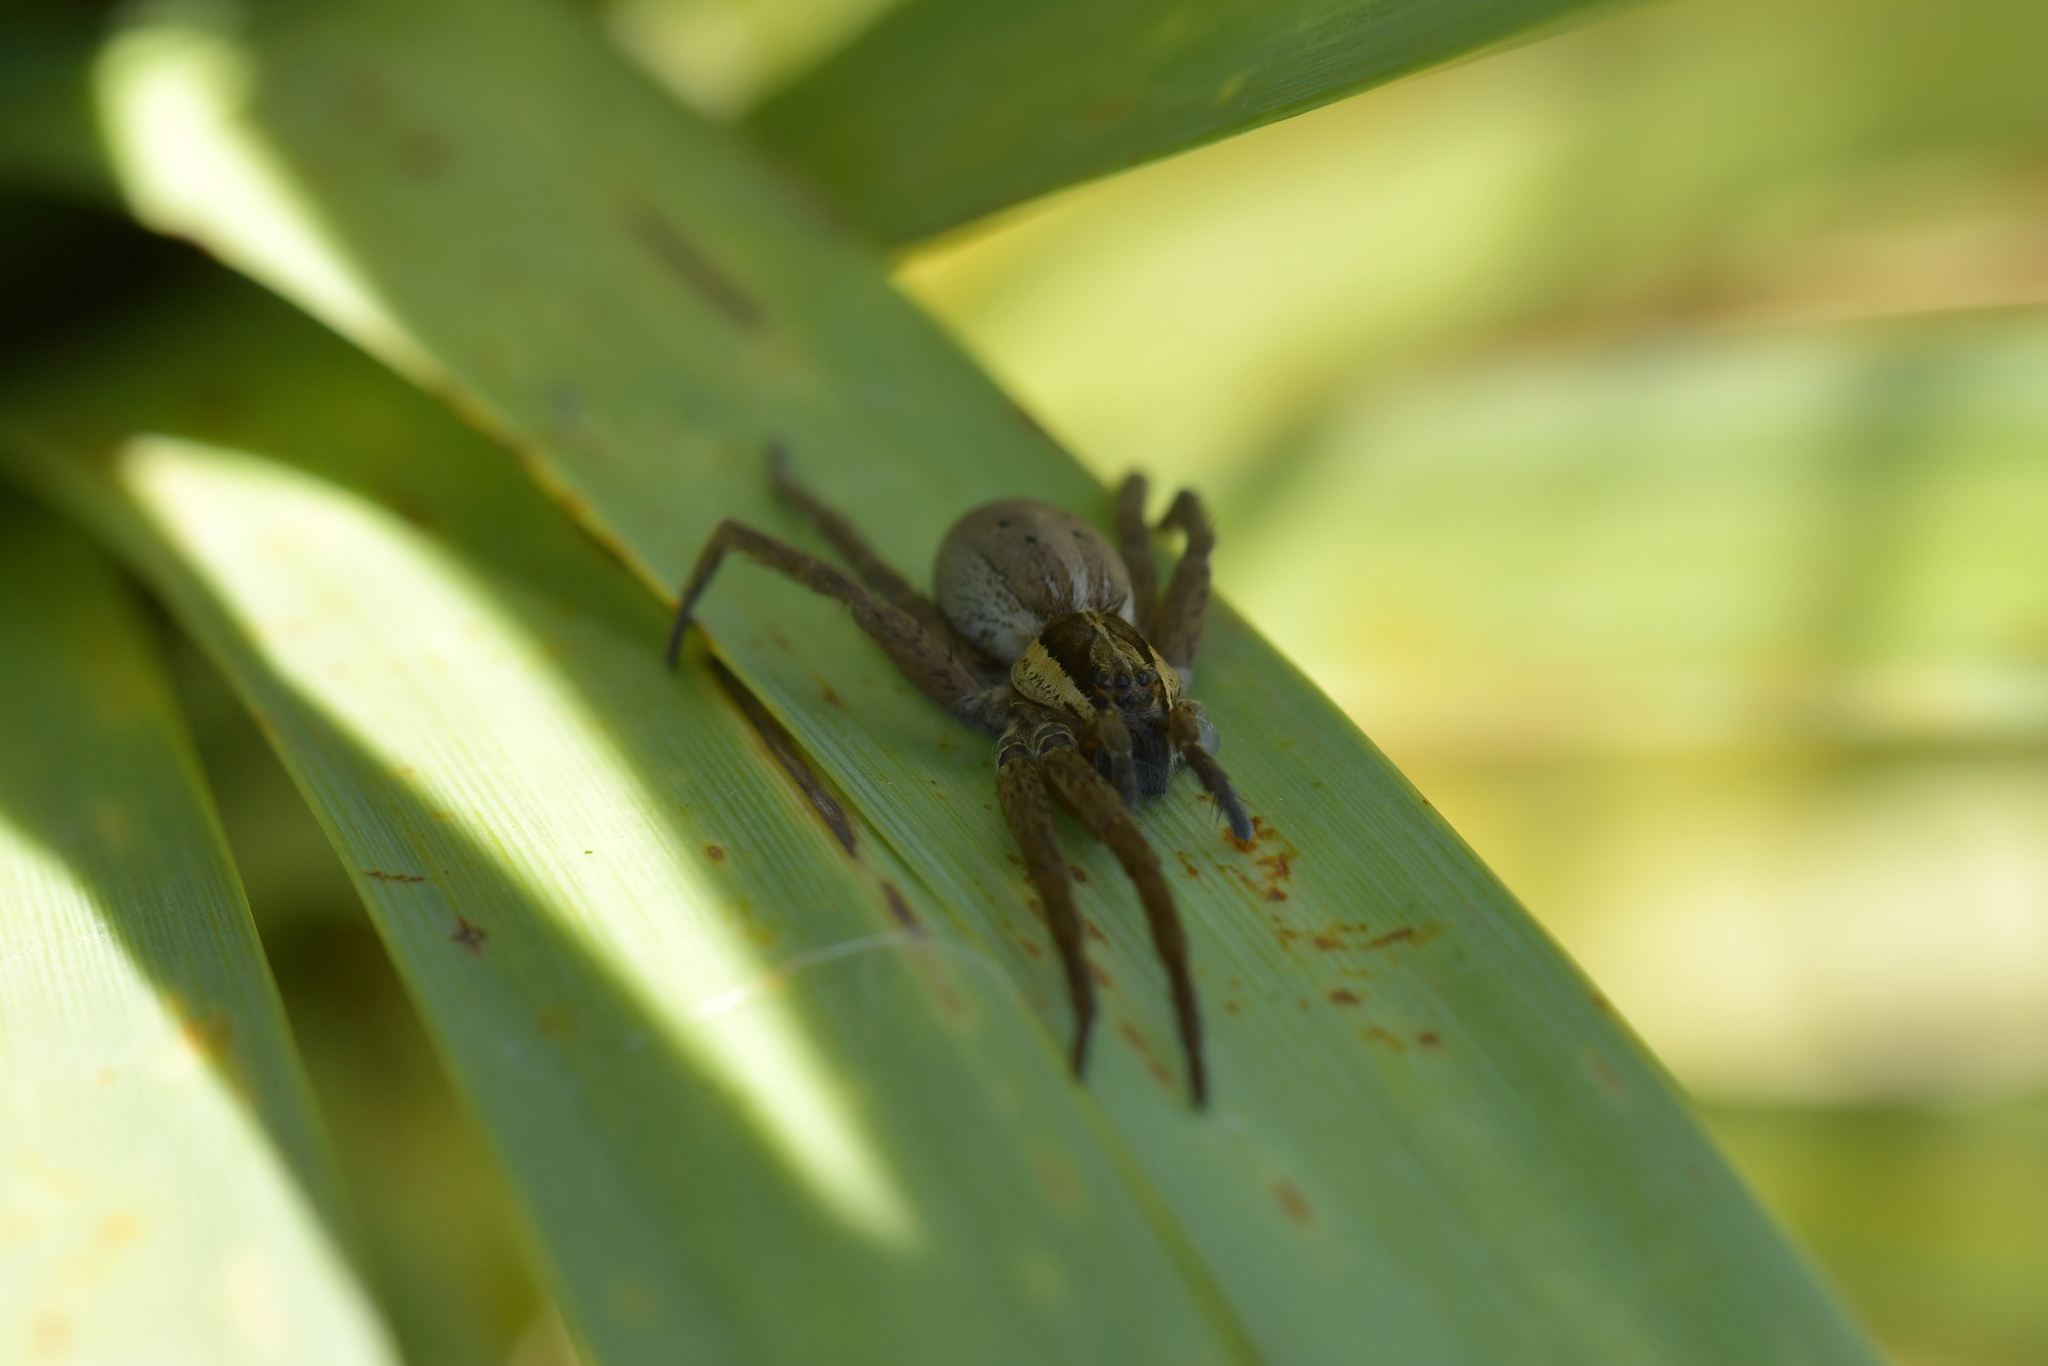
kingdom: Animalia
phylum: Arthropoda
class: Arachnida
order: Araneae
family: Pisauridae
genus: Dolomedes
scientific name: Dolomedes minor
